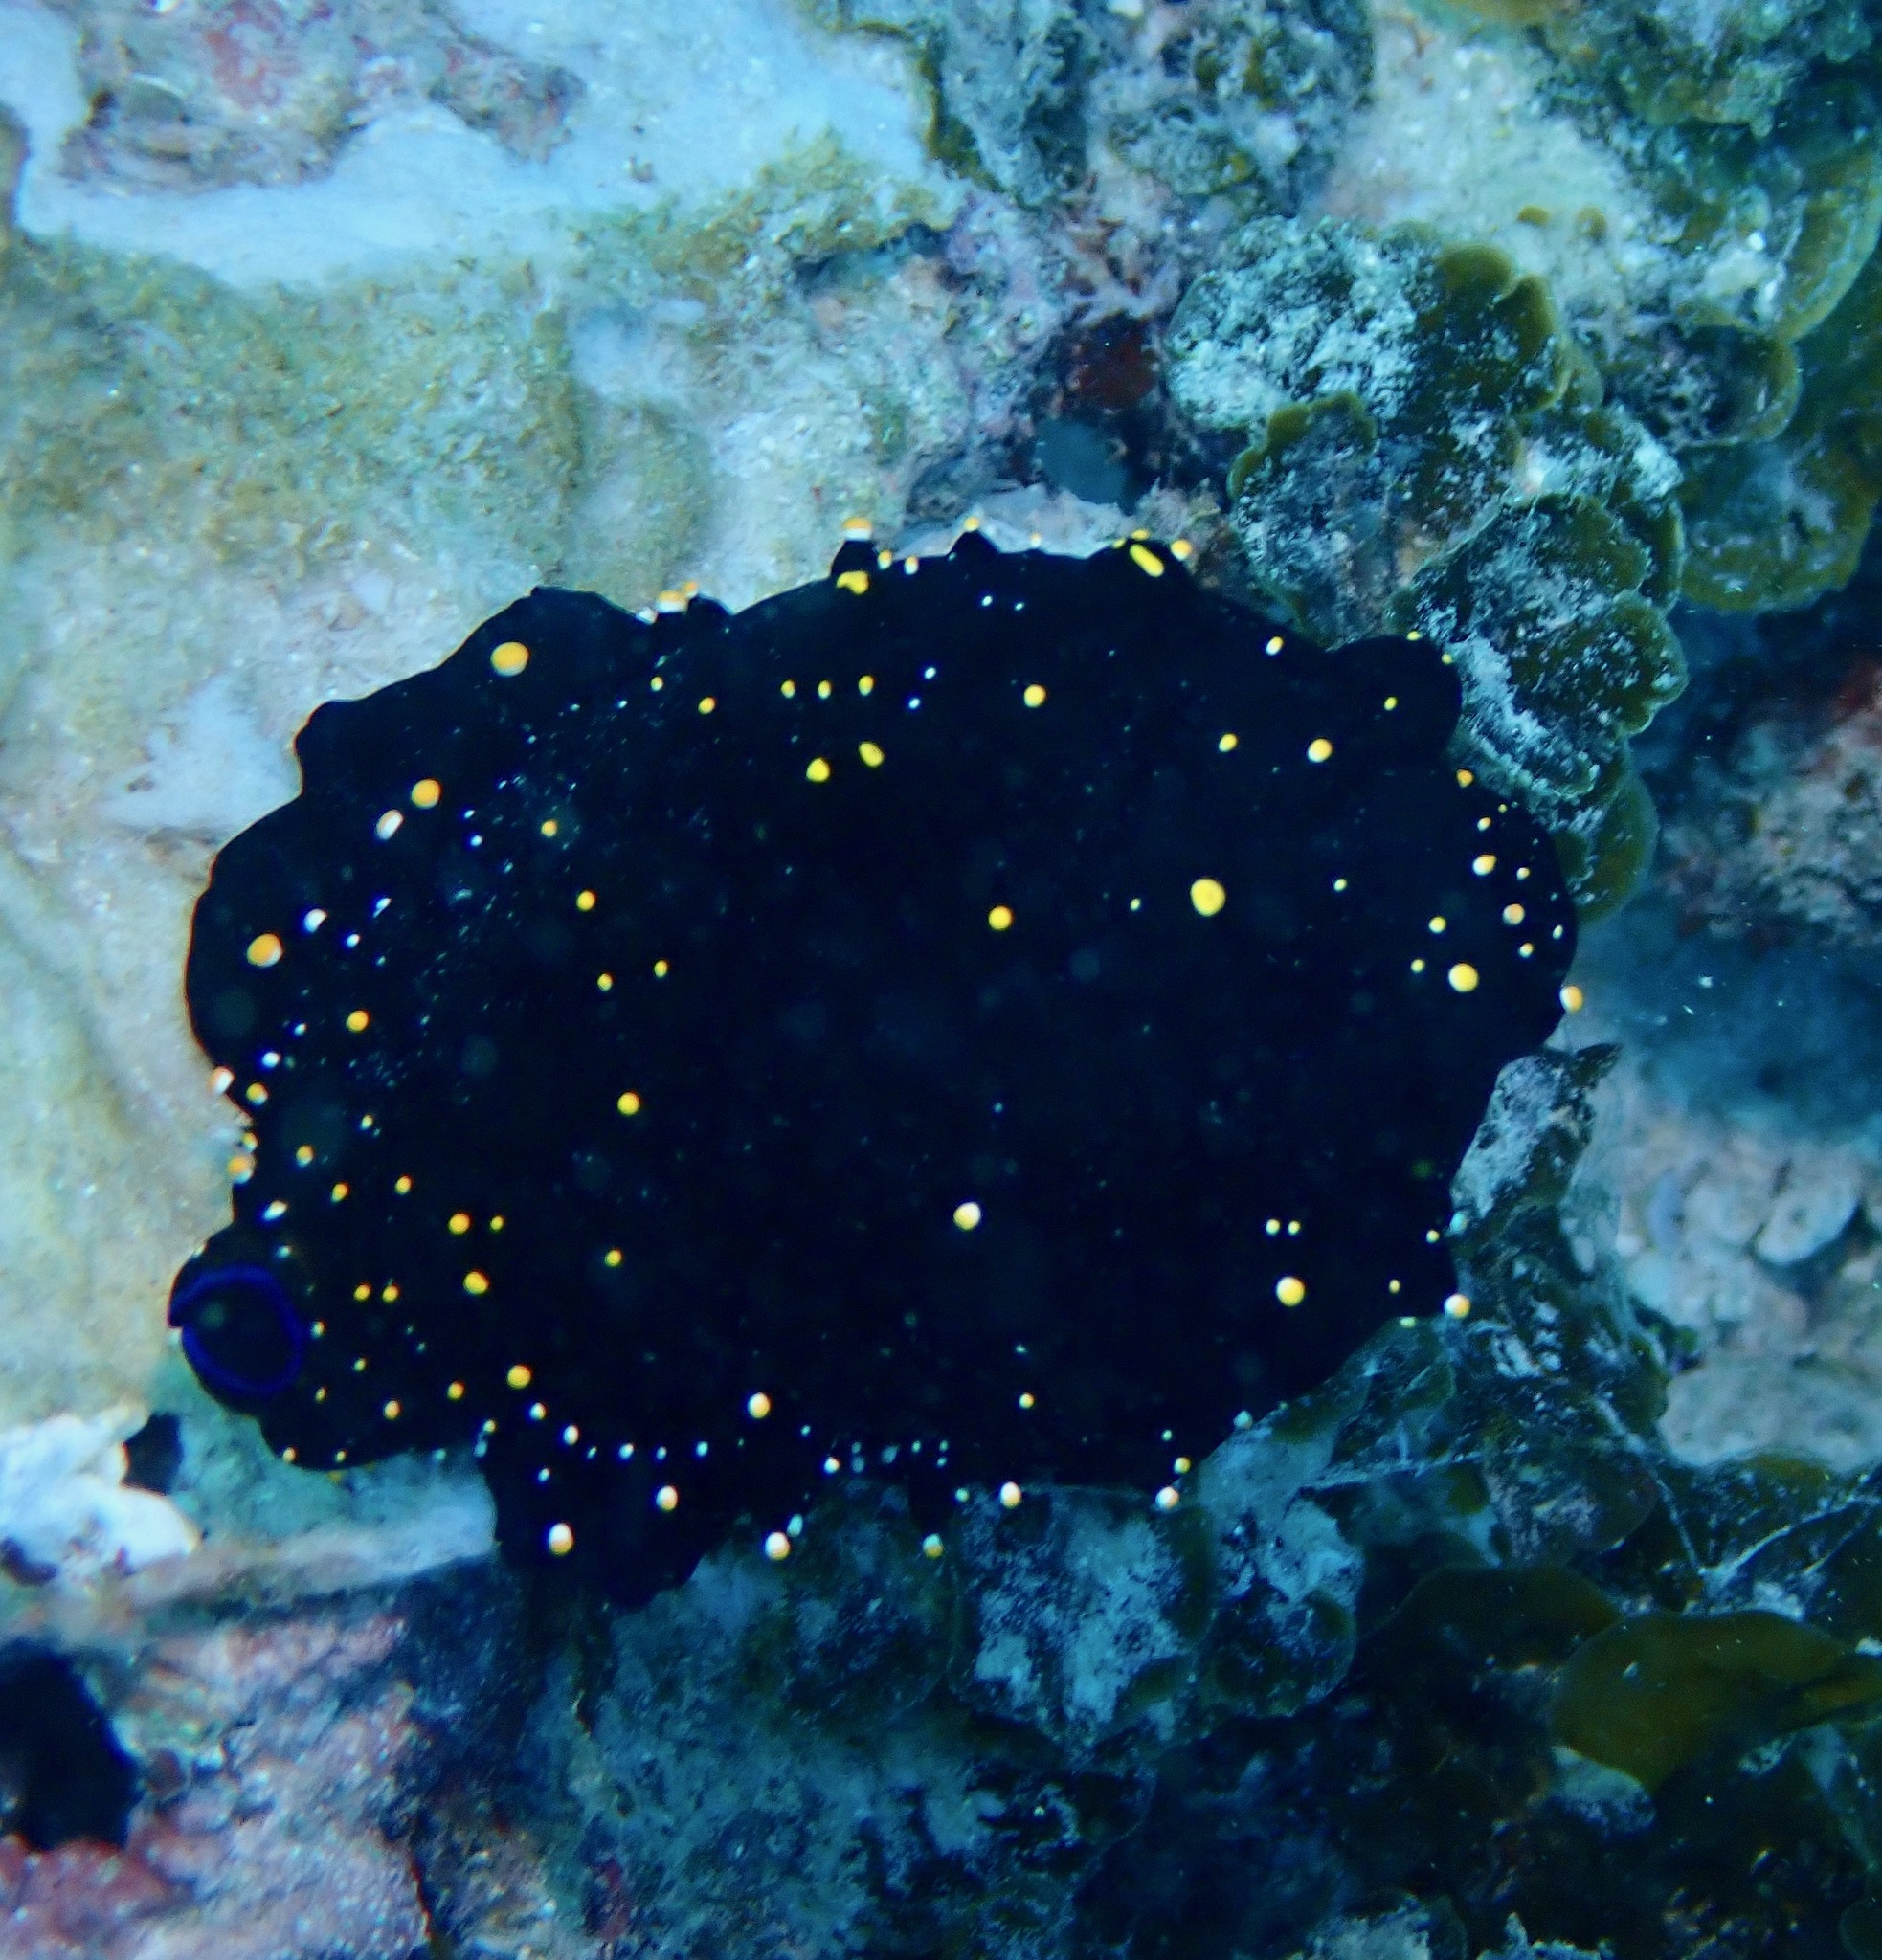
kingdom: Animalia
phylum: Mollusca
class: Gastropoda
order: Littorinimorpha
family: Ovulidae
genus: Ovula
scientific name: Ovula ovum
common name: Common egg cowrie
